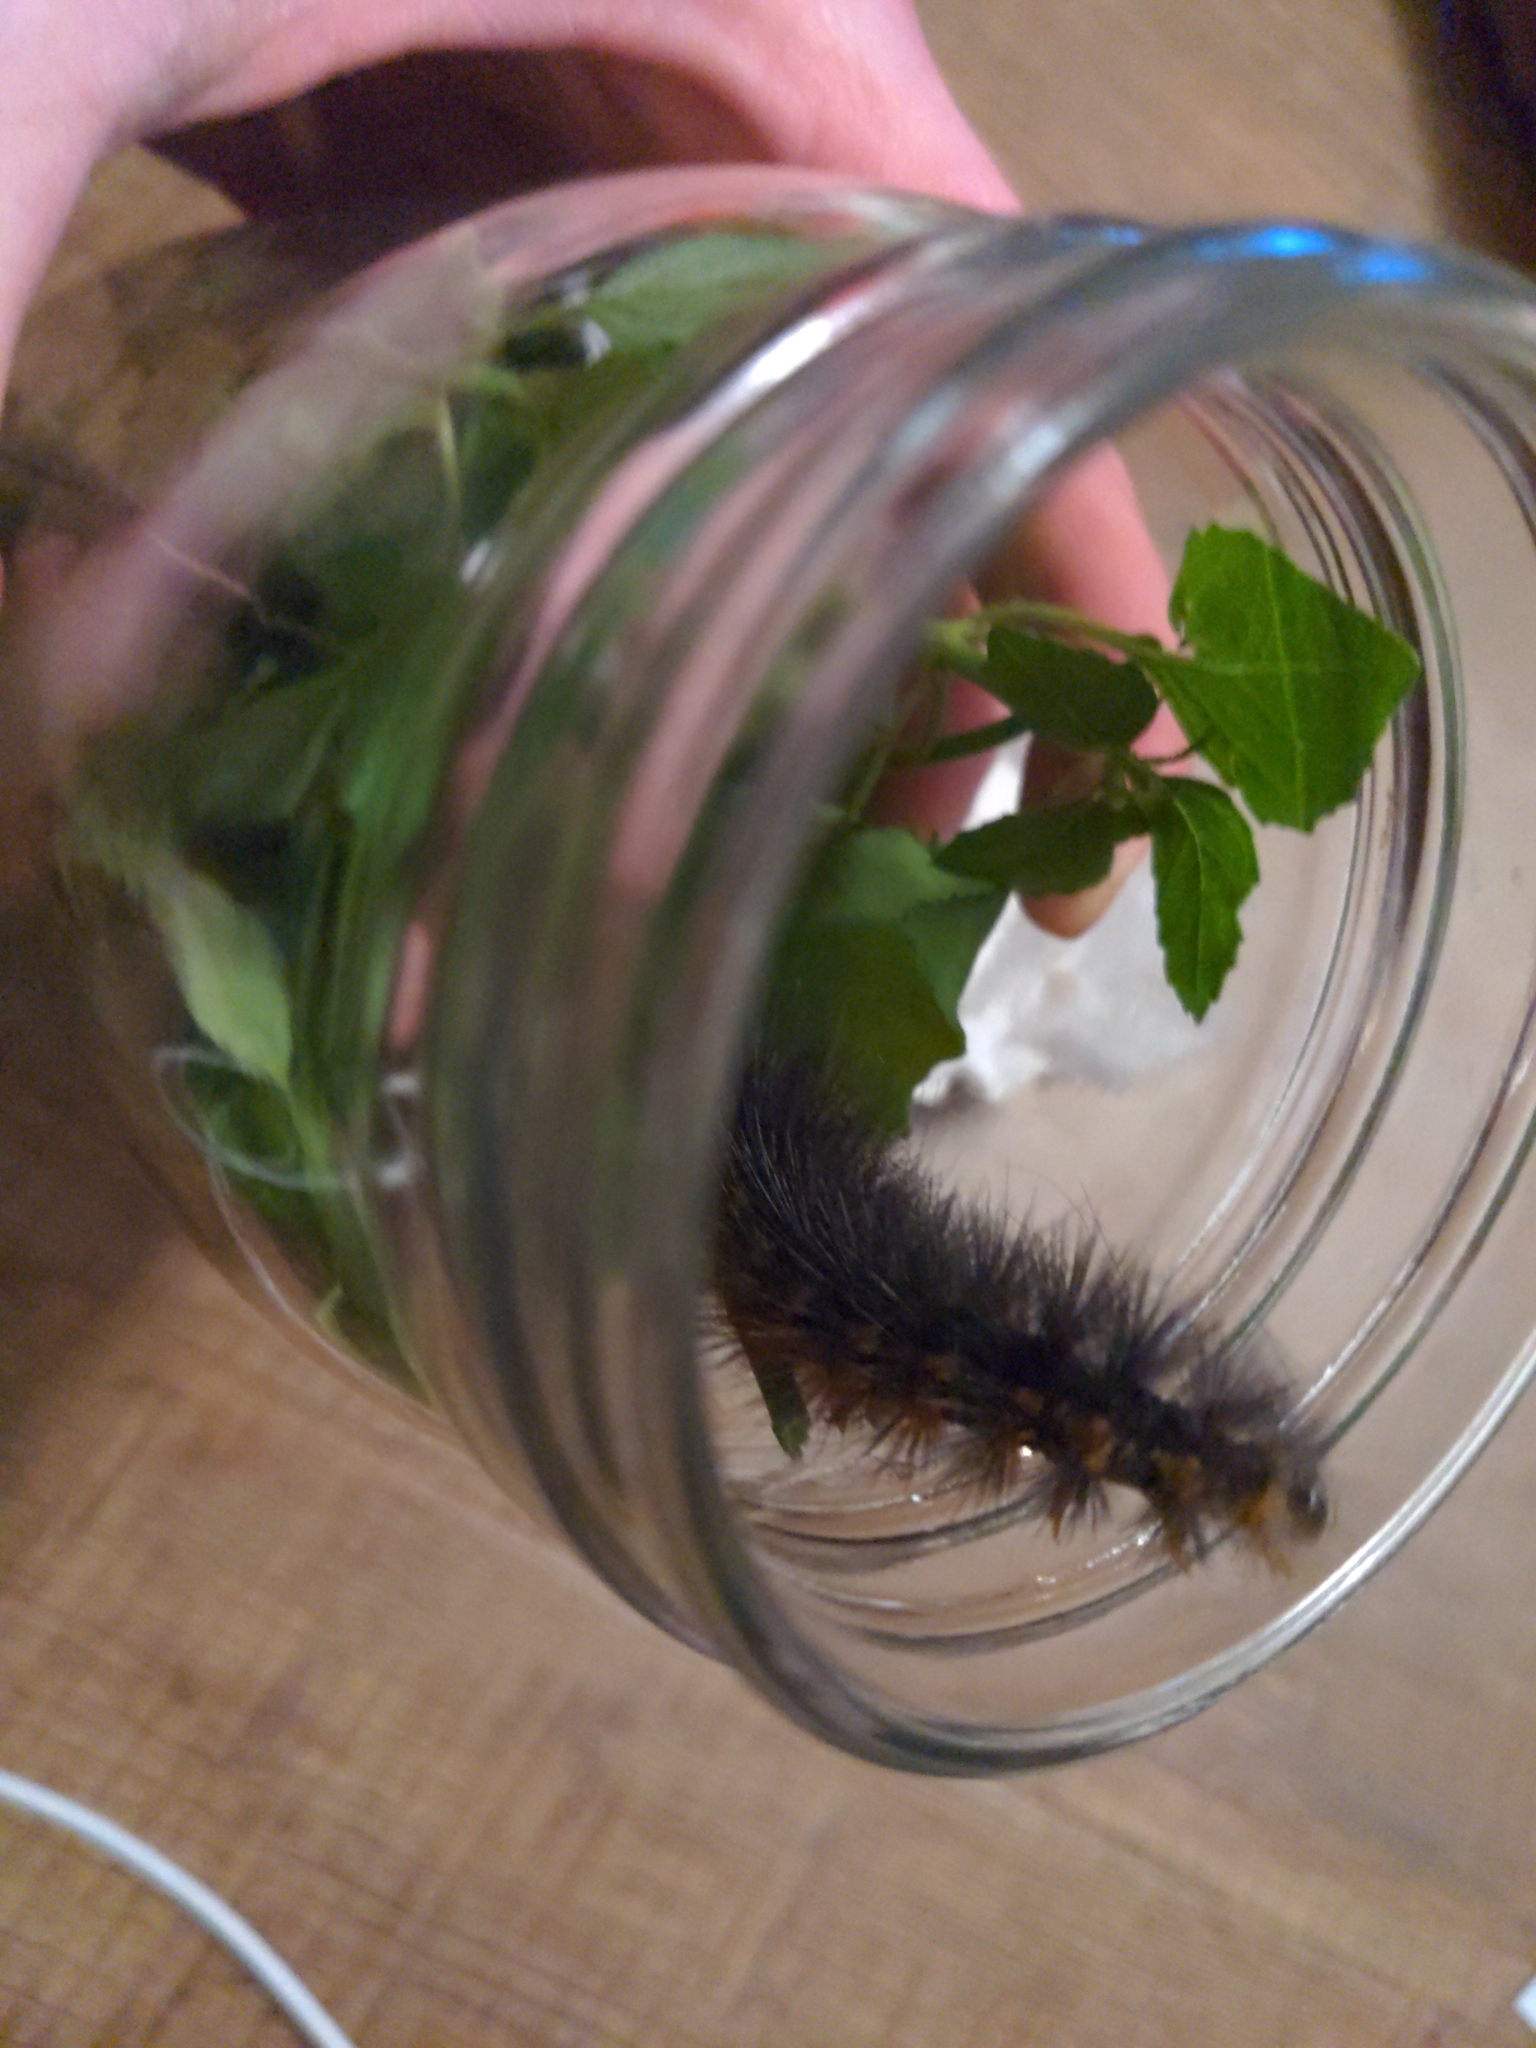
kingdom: Animalia
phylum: Arthropoda
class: Insecta
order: Lepidoptera
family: Erebidae
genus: Estigmene
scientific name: Estigmene acrea
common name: Salt marsh moth
